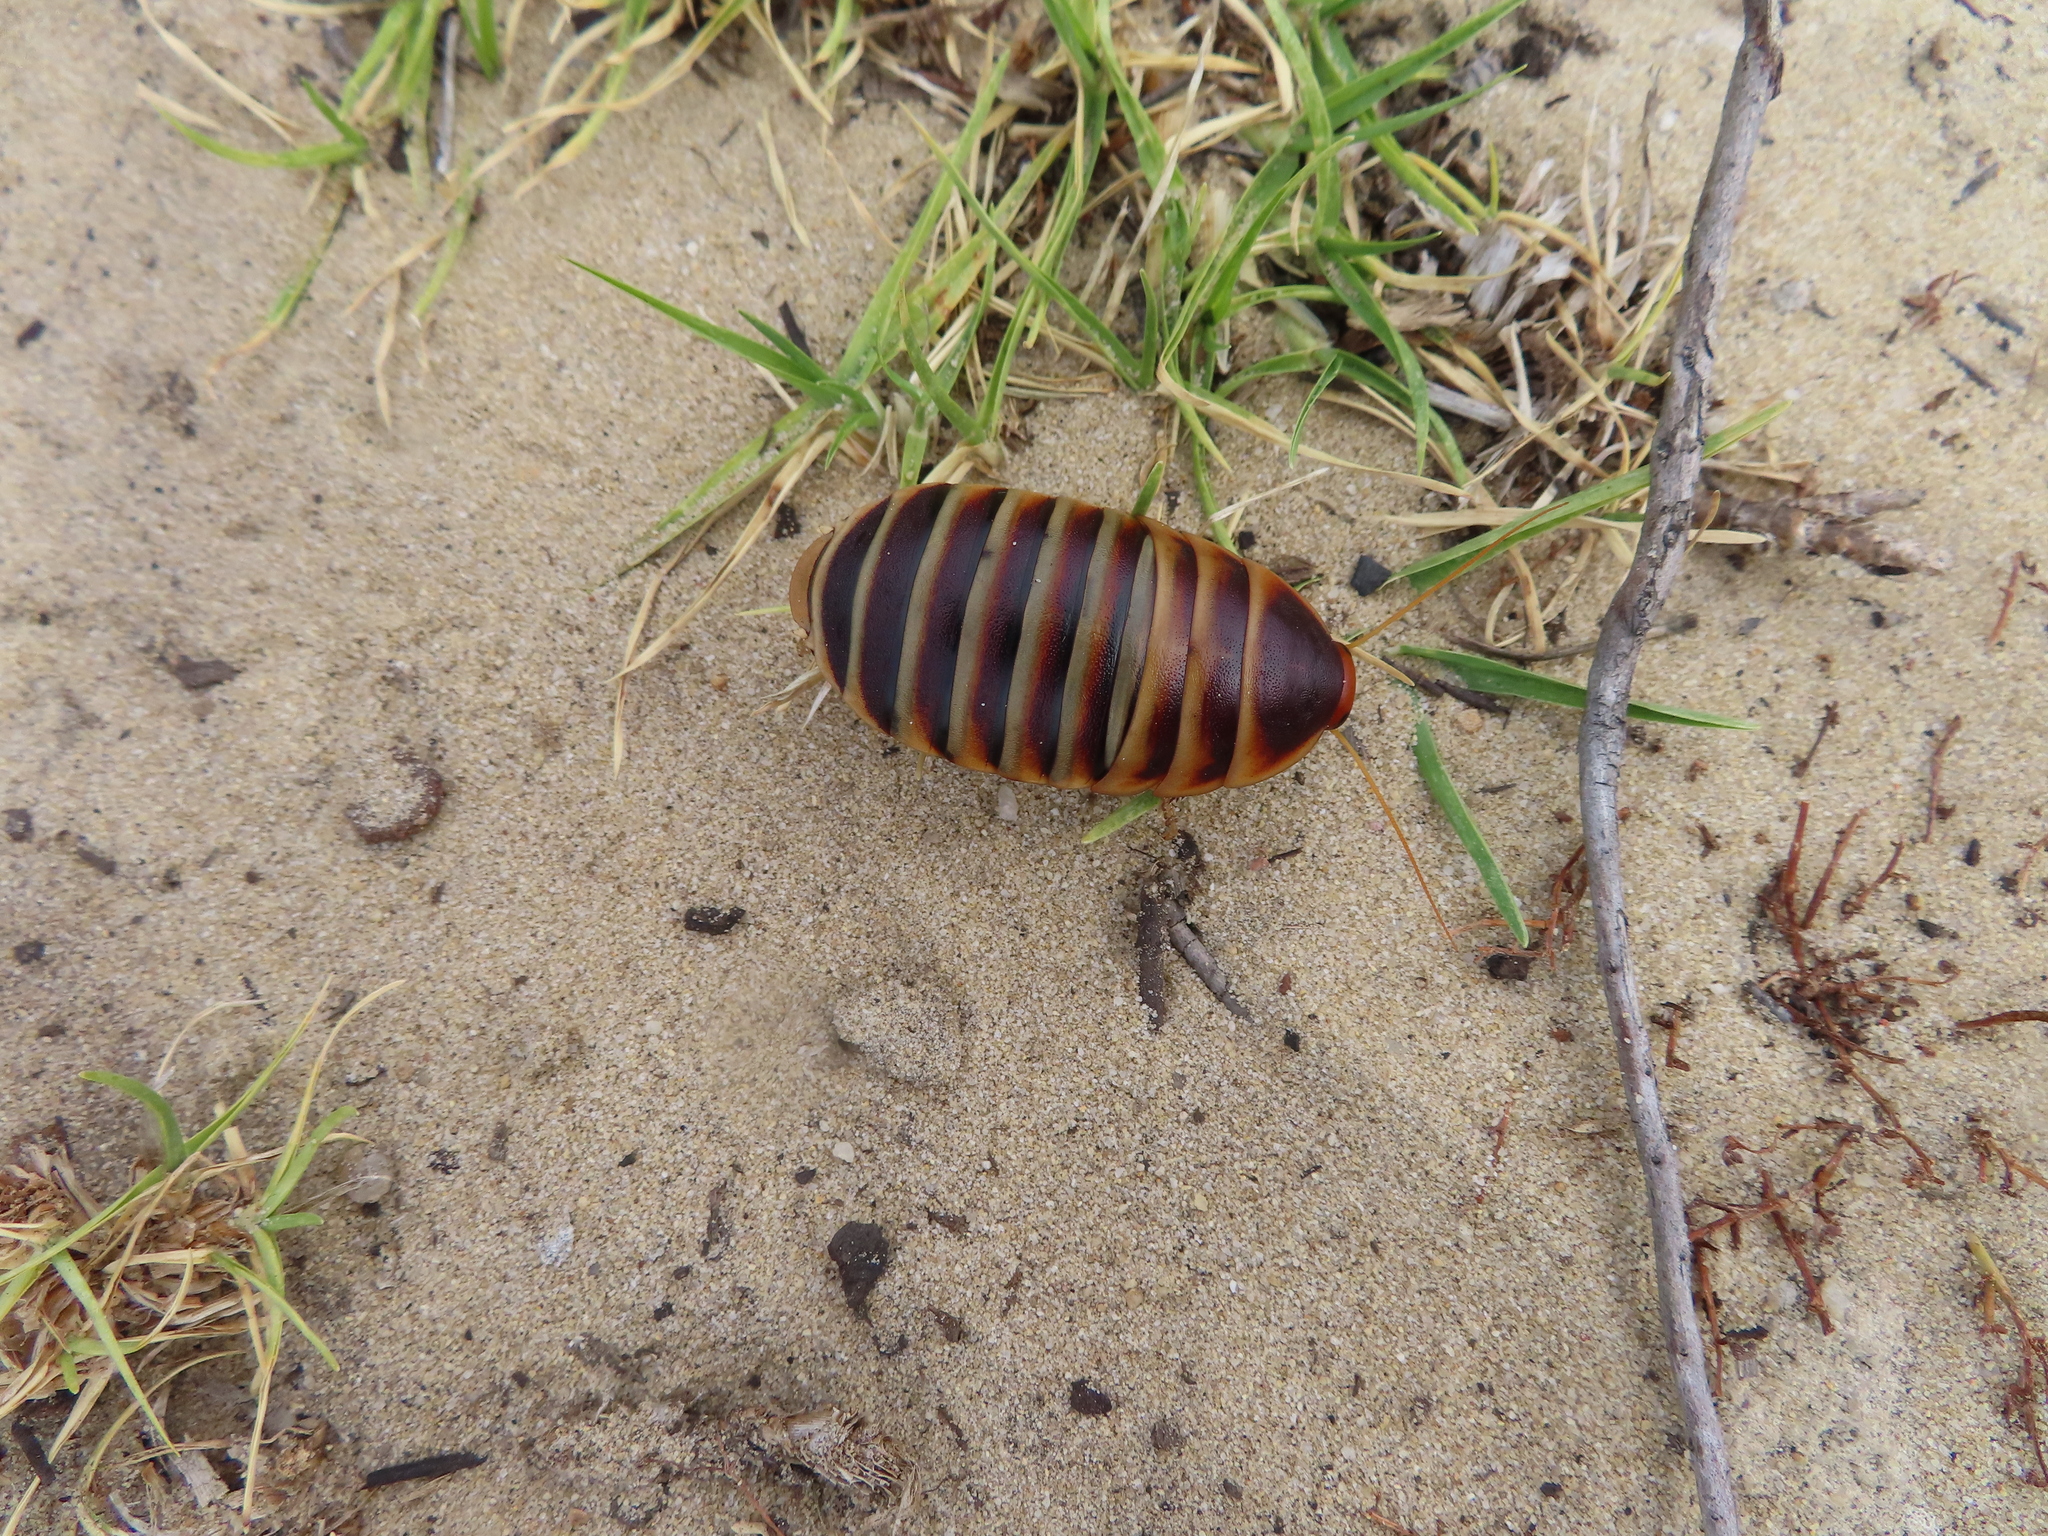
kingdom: Animalia
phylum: Arthropoda
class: Insecta
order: Blattodea
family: Blaberidae
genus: Aptera
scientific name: Aptera fusca
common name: Cape mountain cockroach
